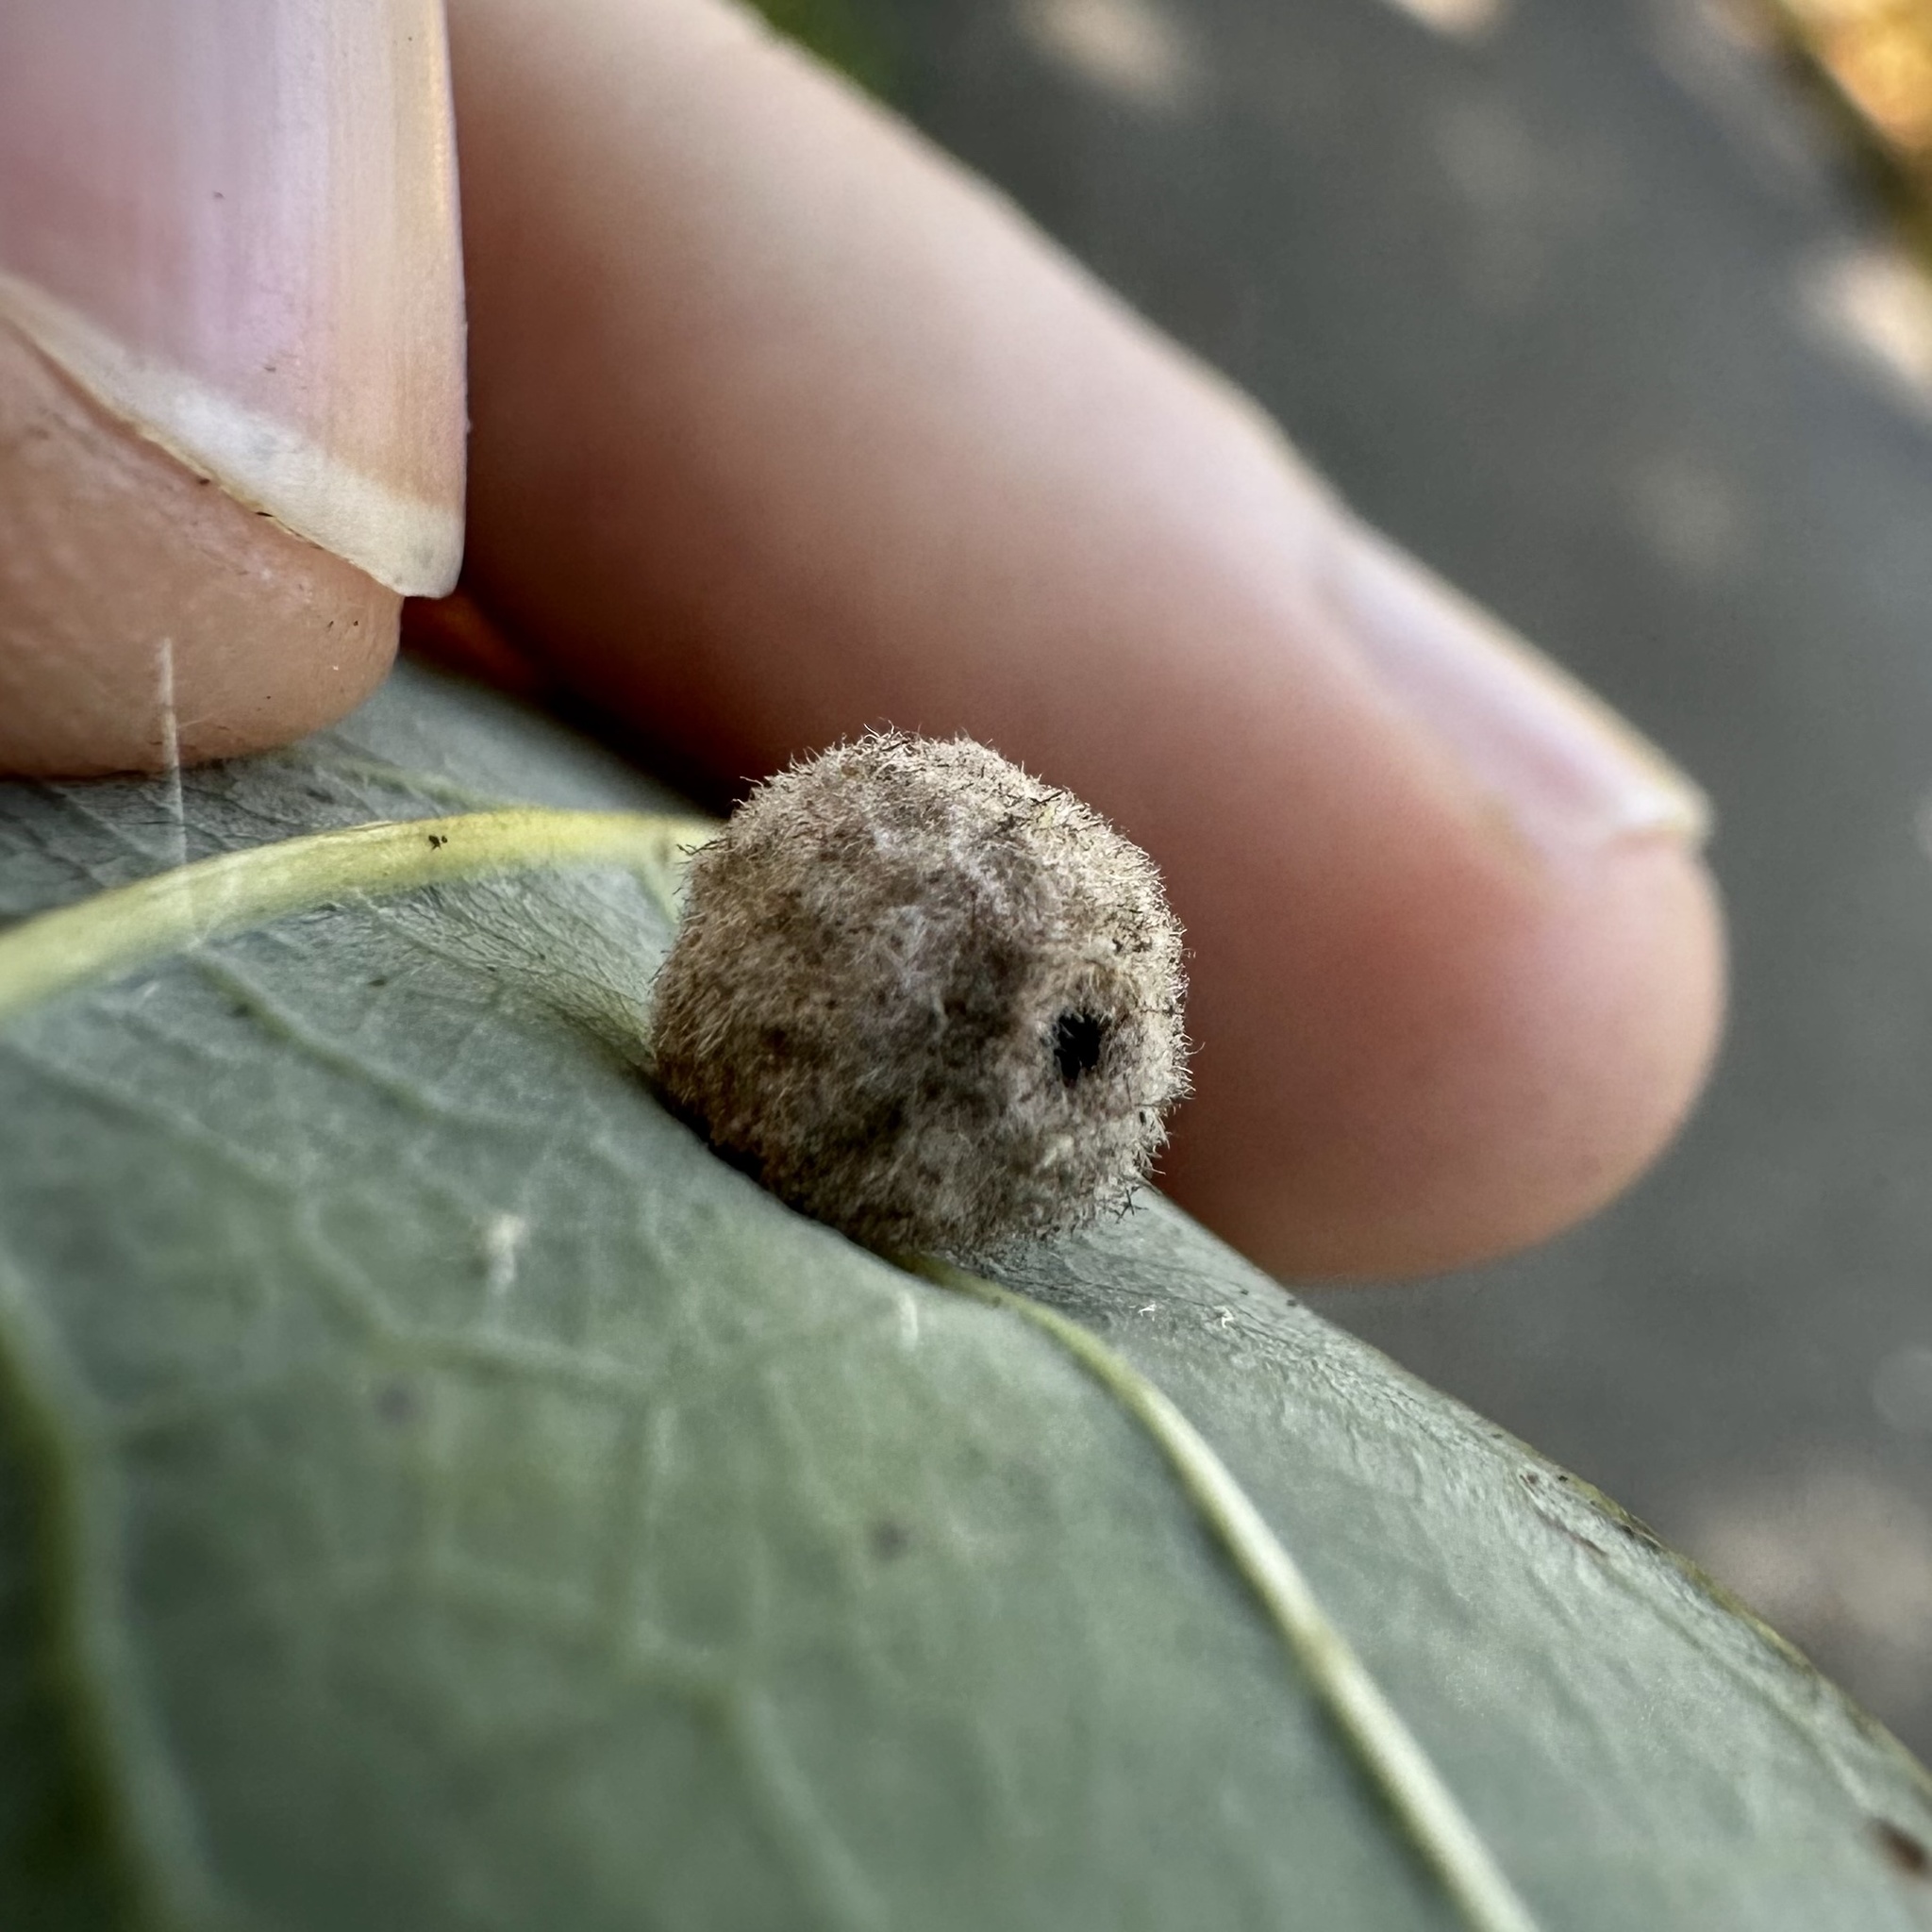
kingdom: Animalia
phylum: Arthropoda
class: Insecta
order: Hymenoptera
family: Cynipidae
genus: Philonix
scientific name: Philonix fulvicollis
